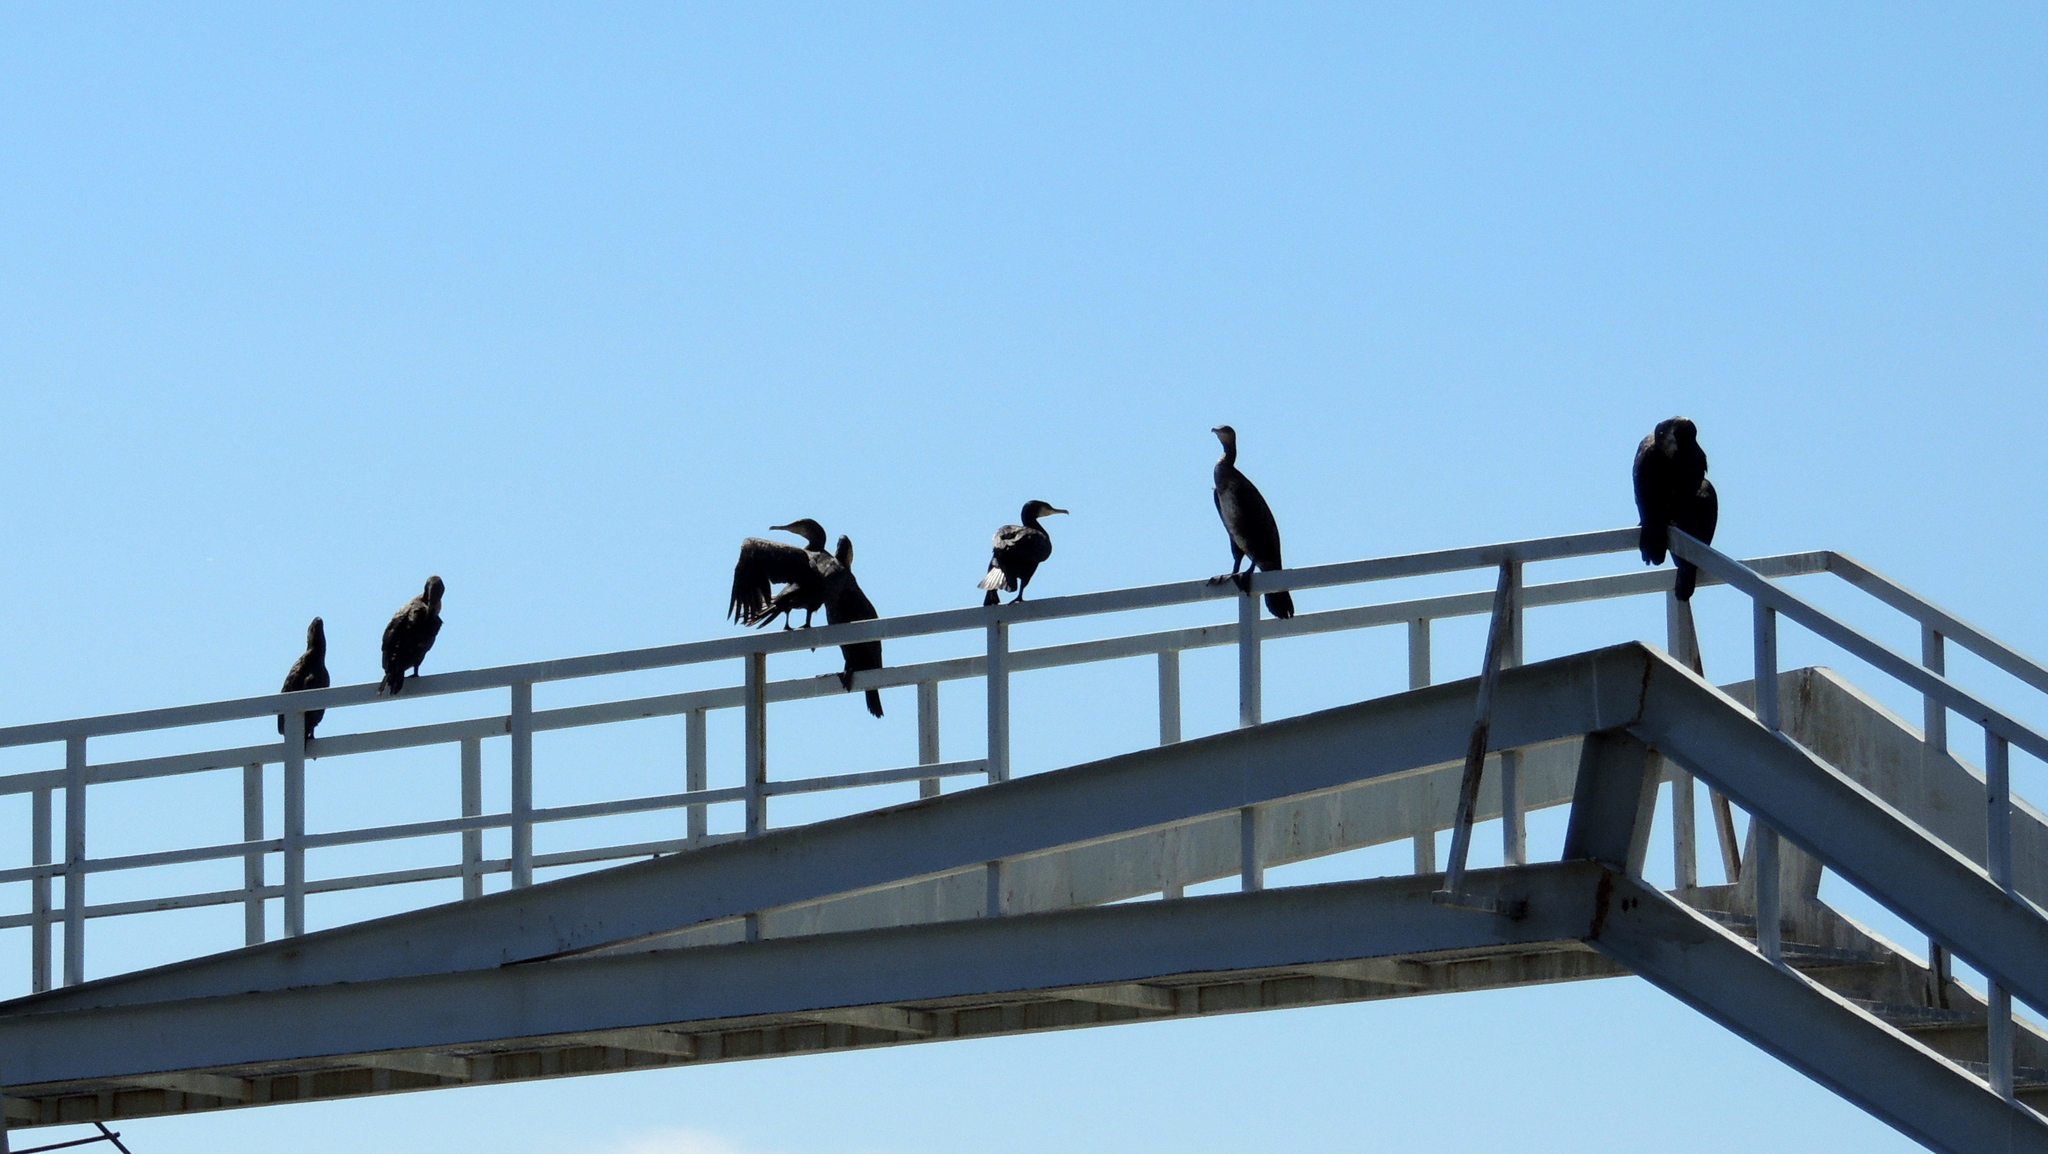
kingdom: Animalia
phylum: Chordata
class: Aves
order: Suliformes
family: Phalacrocoracidae
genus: Phalacrocorax
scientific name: Phalacrocorax carbo
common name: Great cormorant
